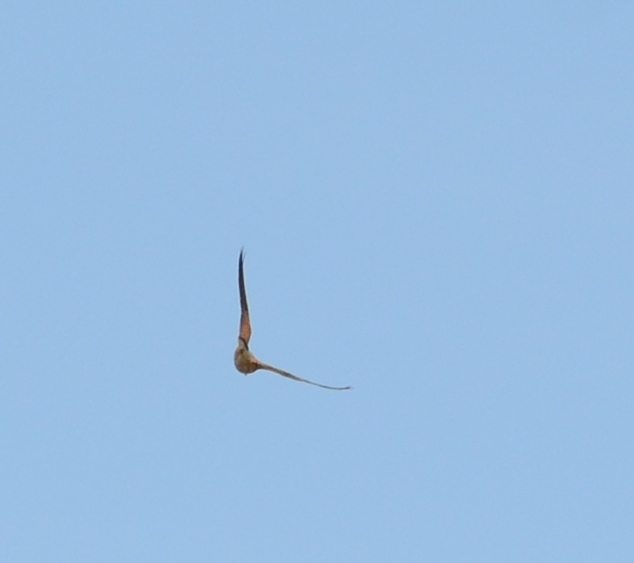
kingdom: Animalia
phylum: Chordata
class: Aves
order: Falconiformes
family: Falconidae
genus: Falco
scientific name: Falco tinnunculus
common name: Common kestrel
